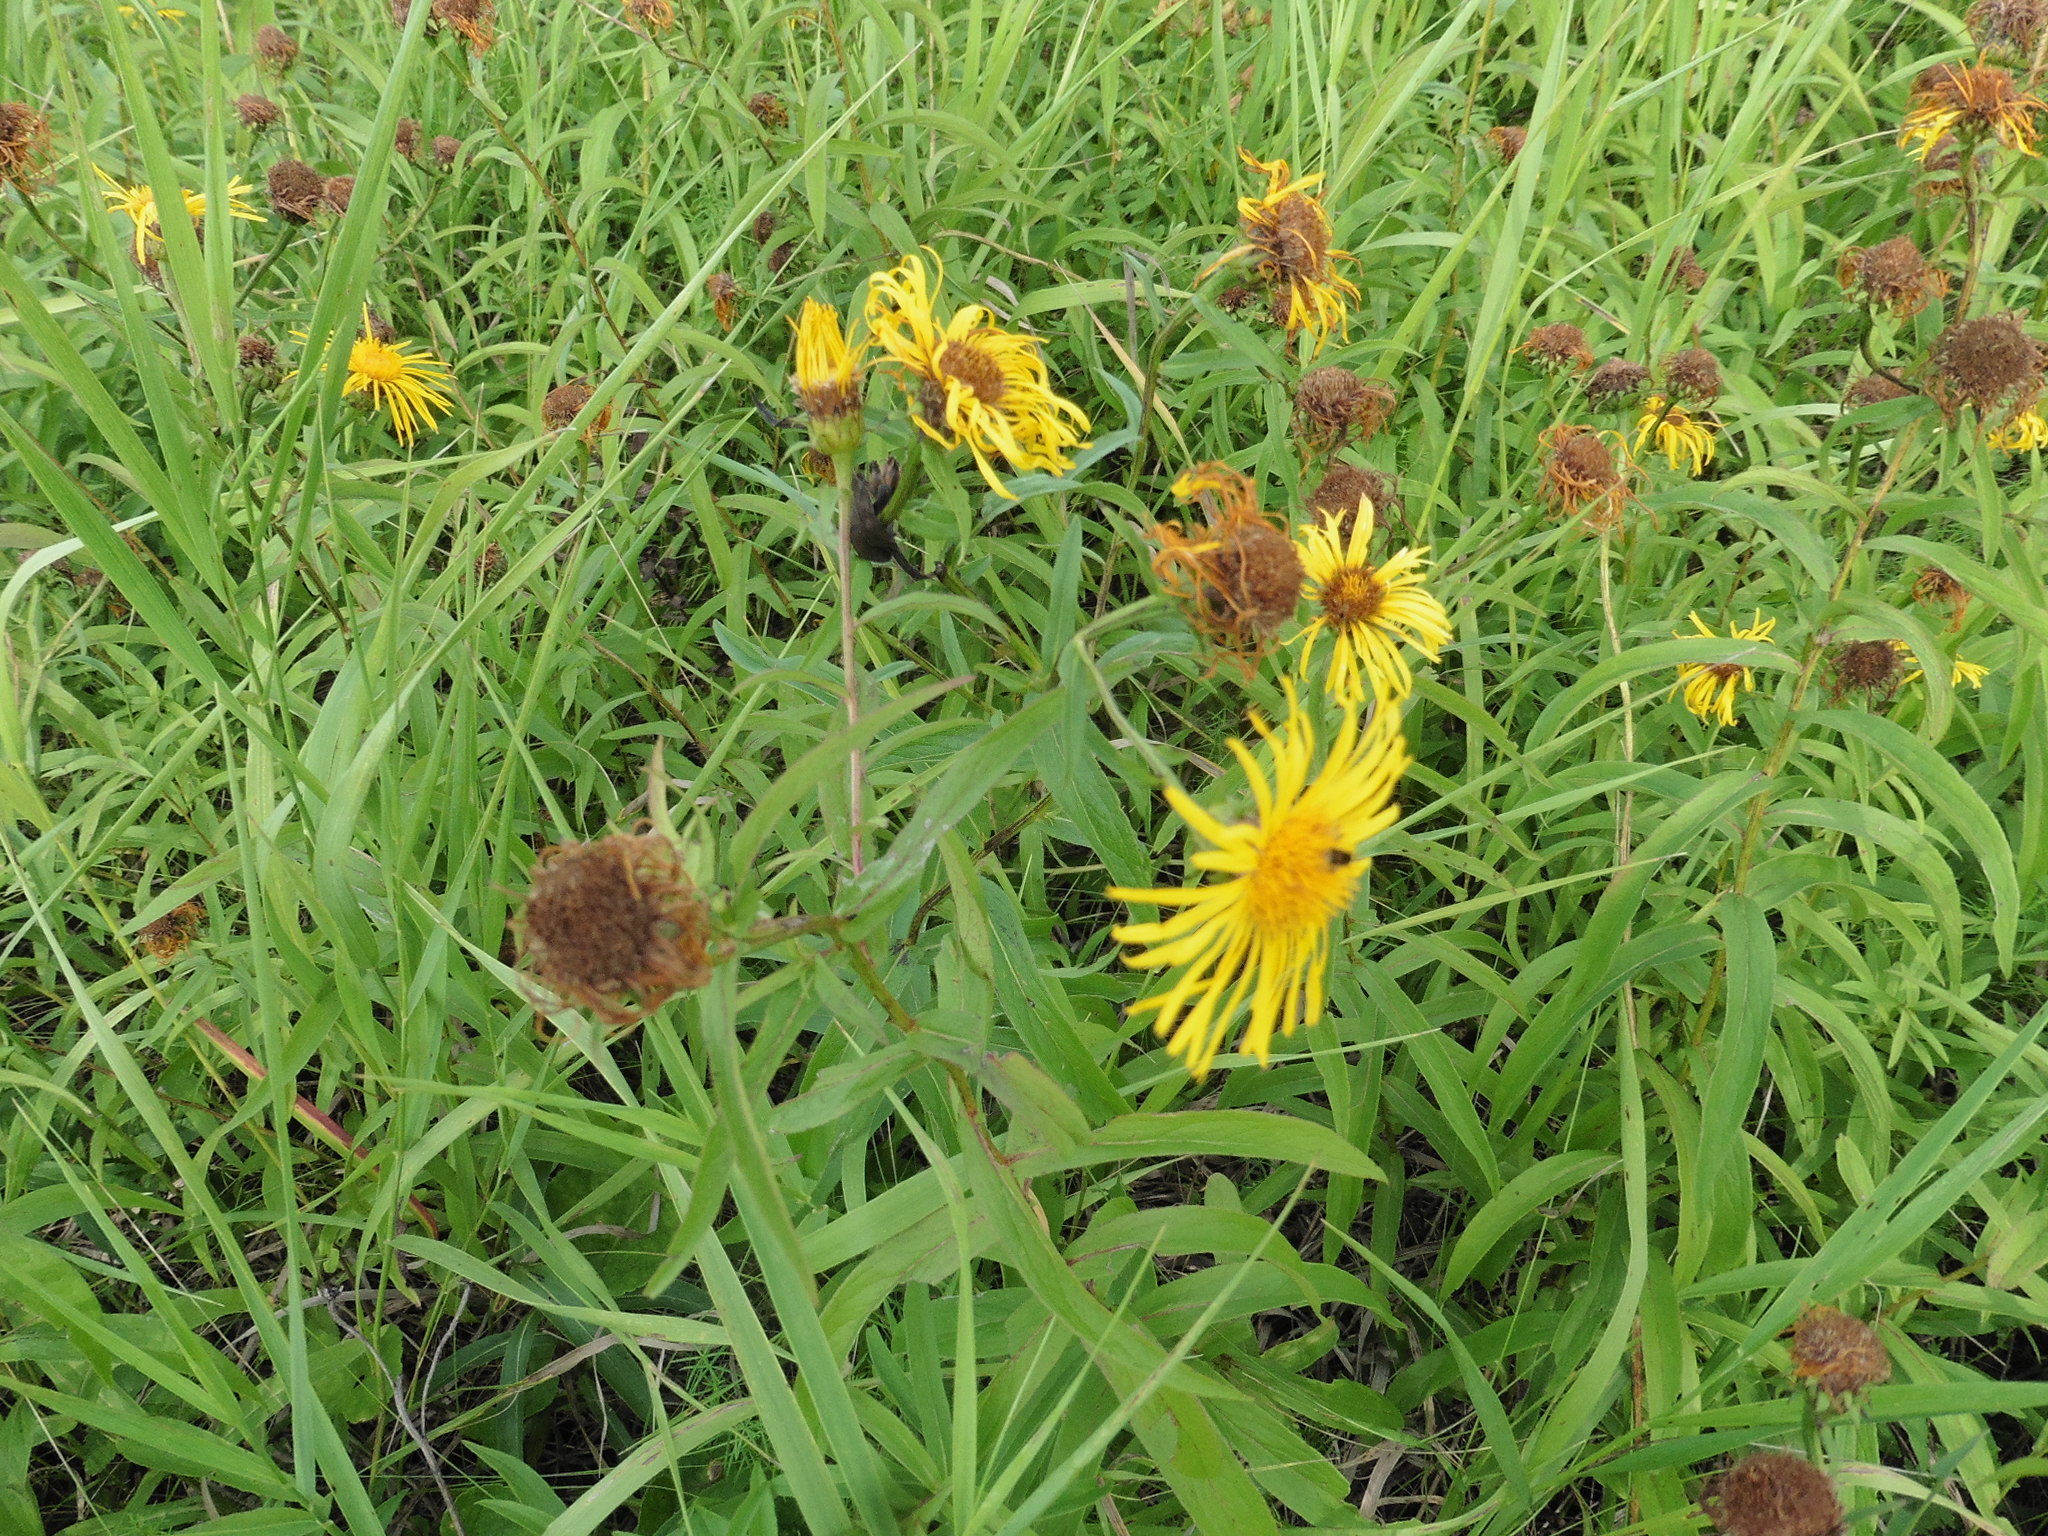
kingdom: Plantae
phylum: Tracheophyta
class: Magnoliopsida
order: Asterales
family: Asteraceae
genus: Pentanema
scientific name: Pentanema salicinum
